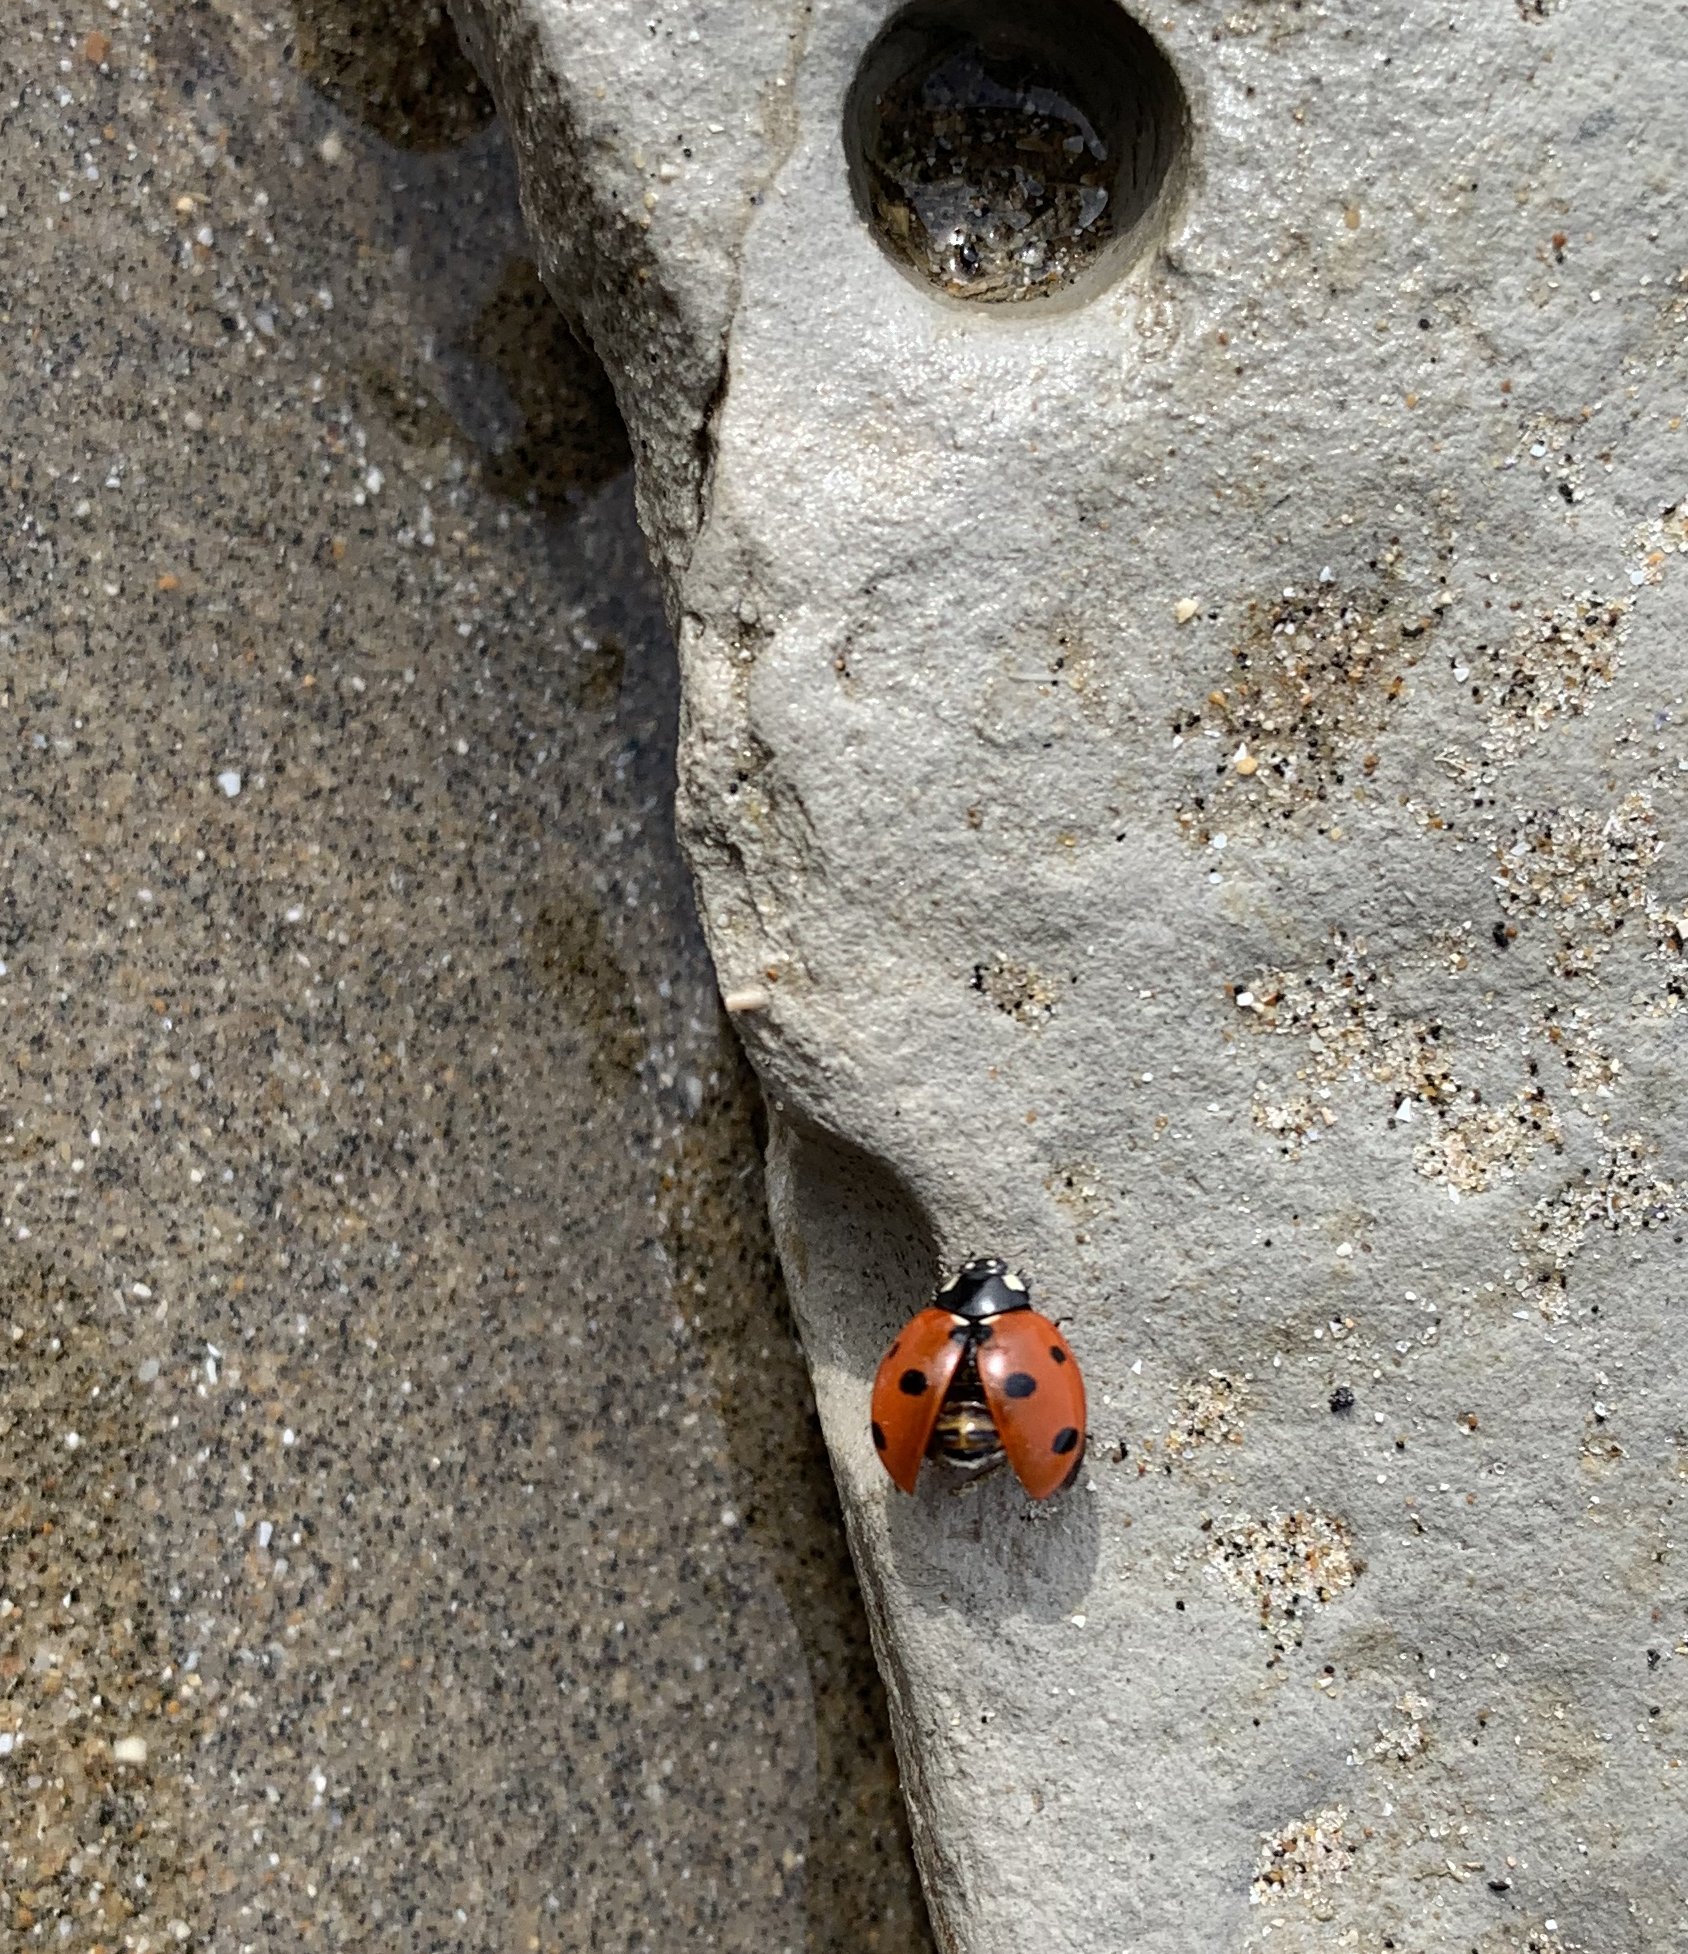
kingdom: Animalia
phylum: Arthropoda
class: Insecta
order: Coleoptera
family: Coccinellidae
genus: Coccinella
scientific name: Coccinella septempunctata
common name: Sevenspotted lady beetle
